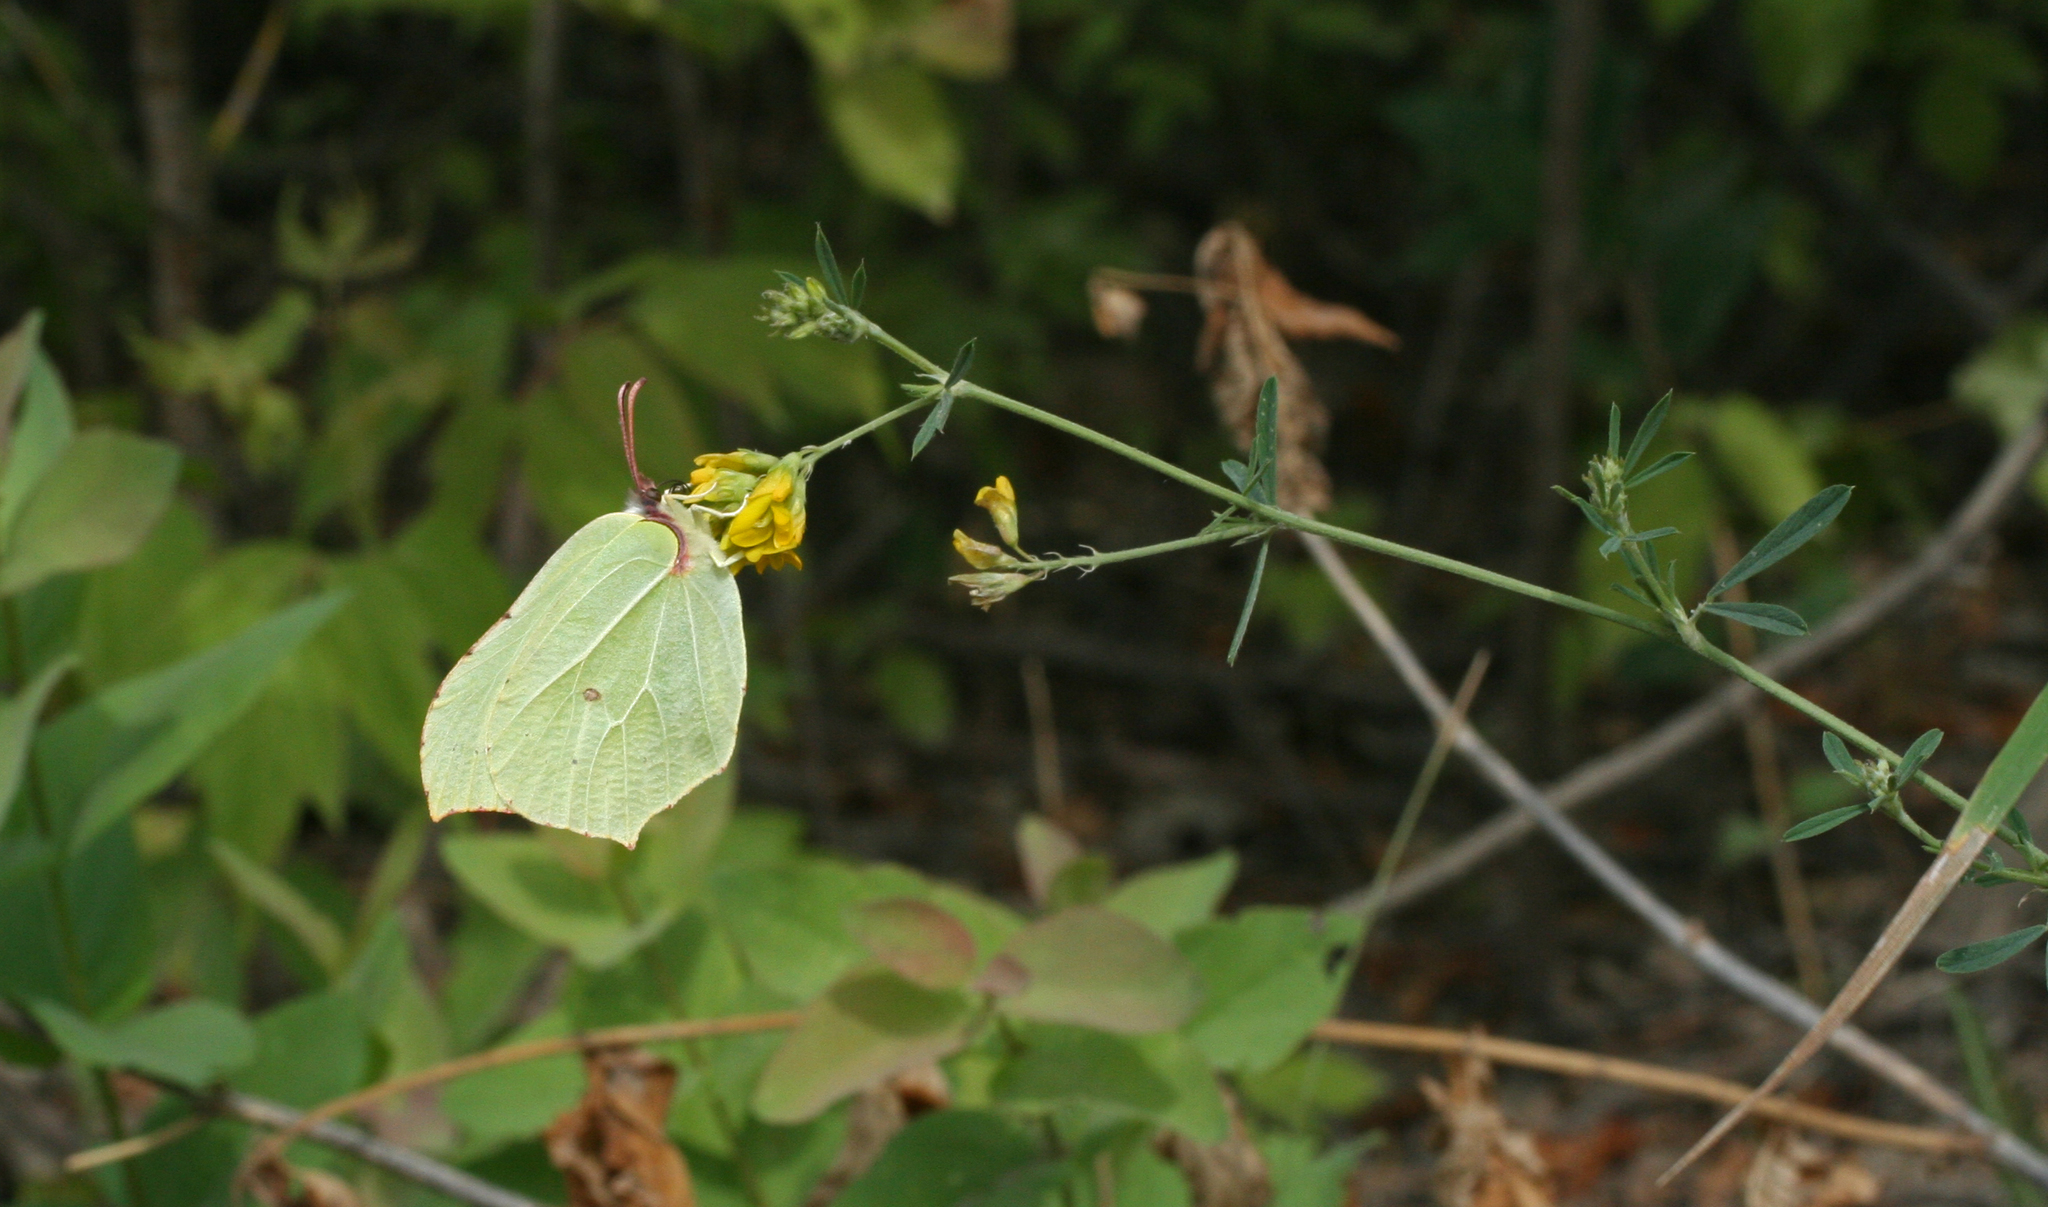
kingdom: Plantae
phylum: Tracheophyta
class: Magnoliopsida
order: Fabales
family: Fabaceae
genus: Medicago
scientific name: Medicago falcata
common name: Sickle medick
